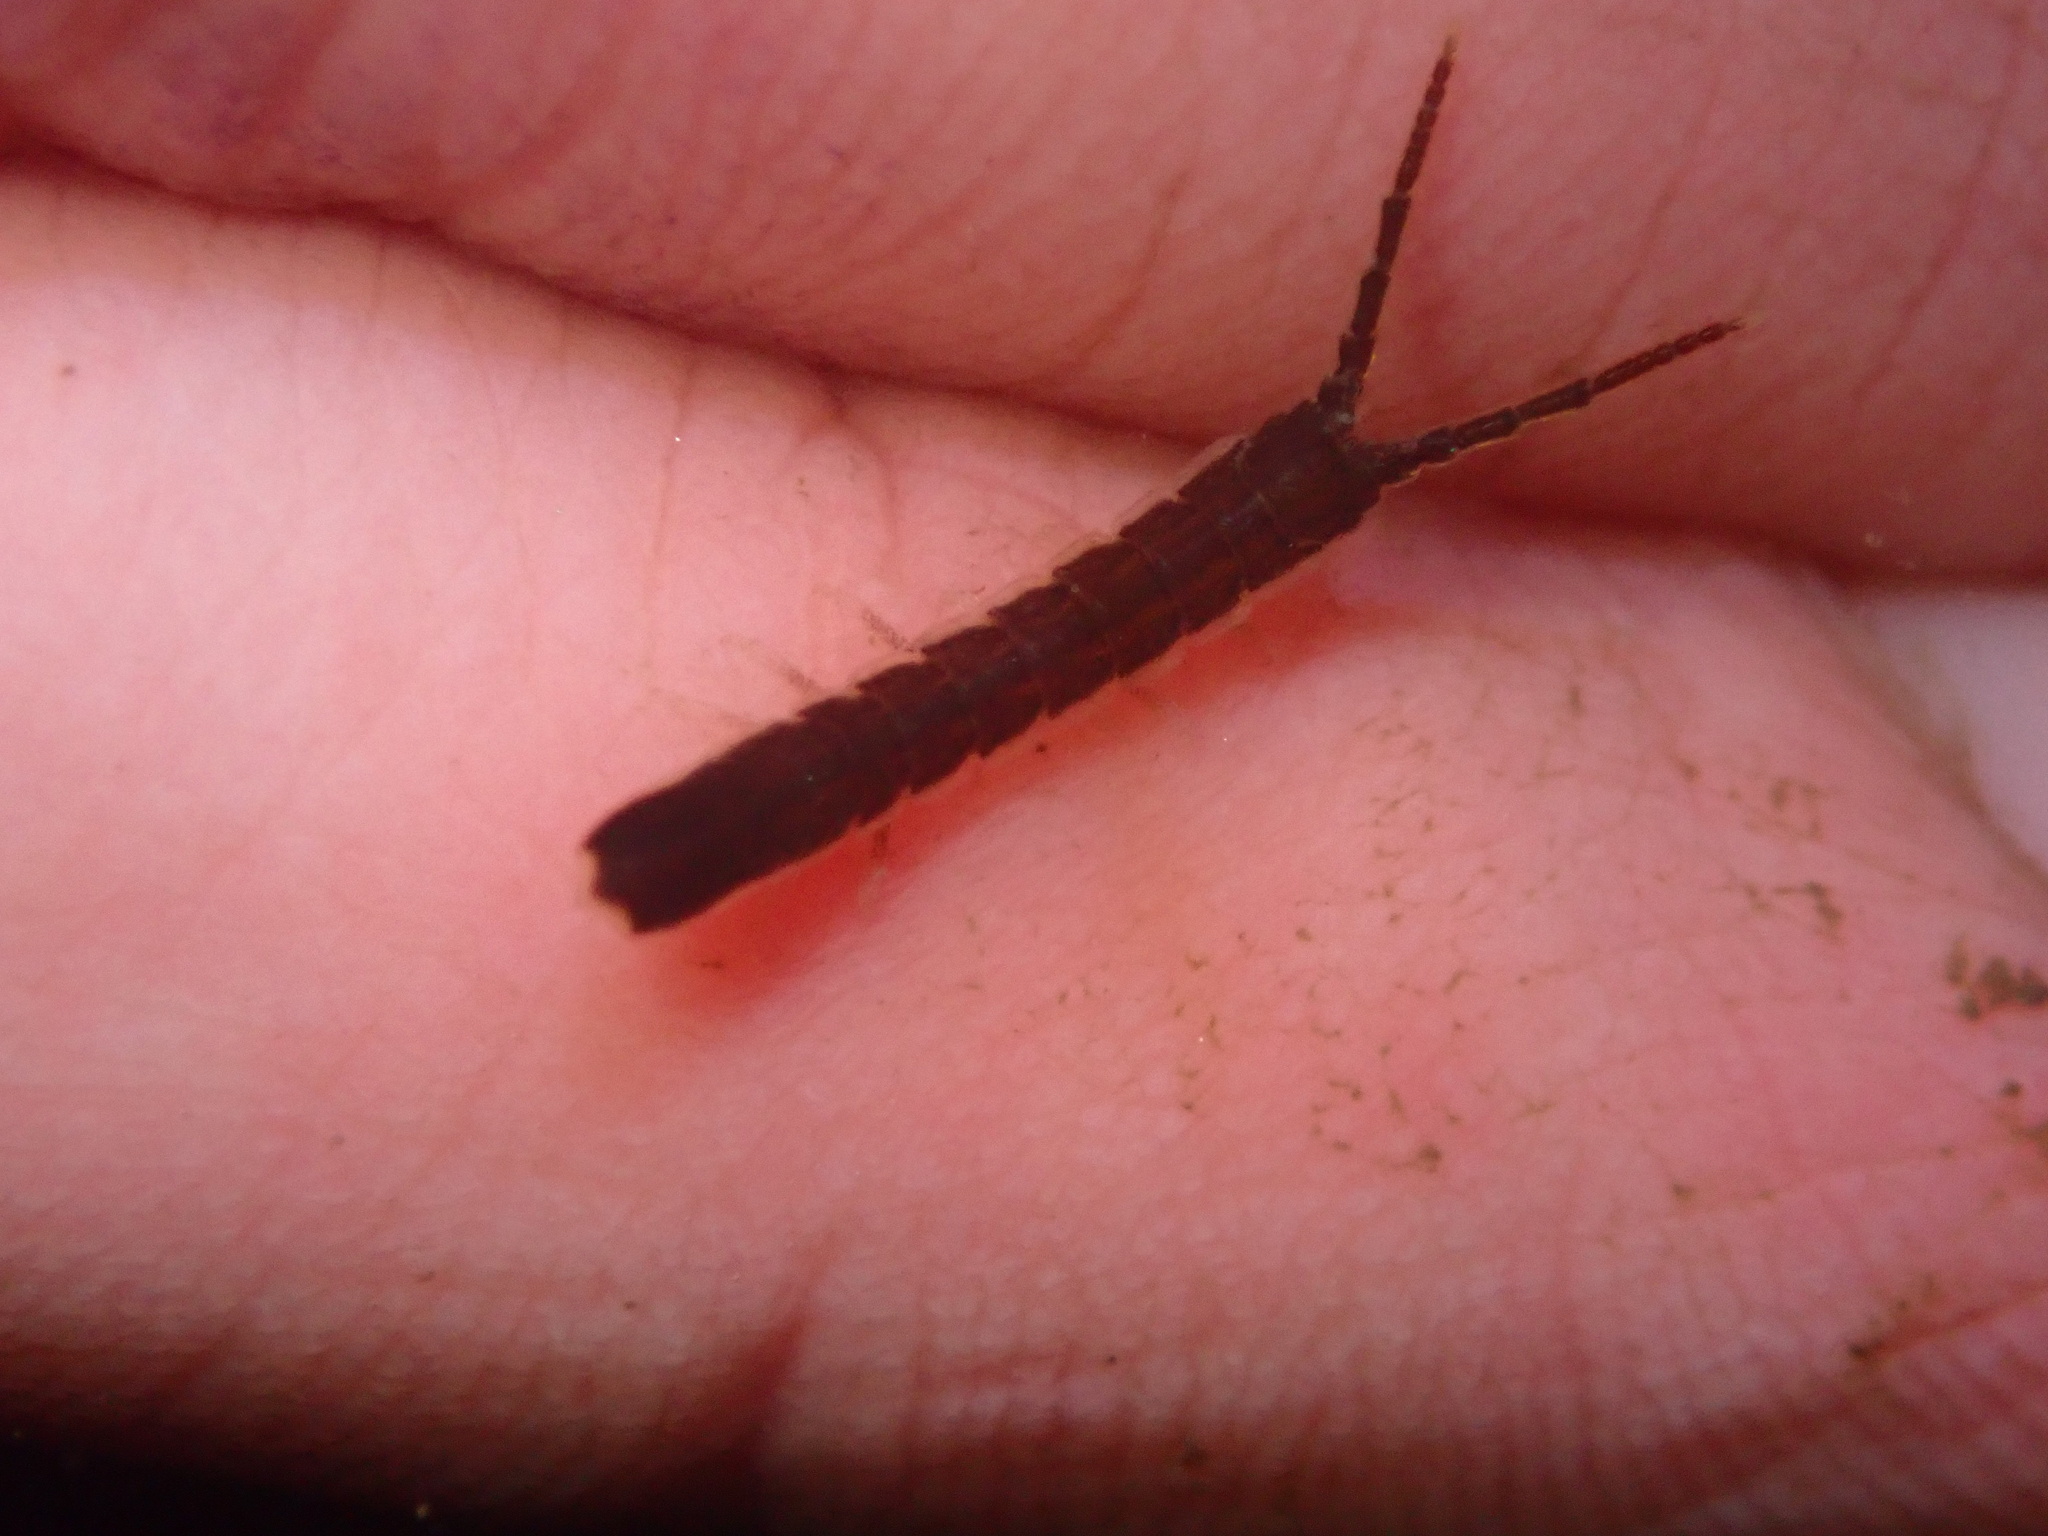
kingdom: Animalia
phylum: Arthropoda
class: Malacostraca
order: Isopoda
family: Idoteidae
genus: Idotea
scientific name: Idotea fewkesi
